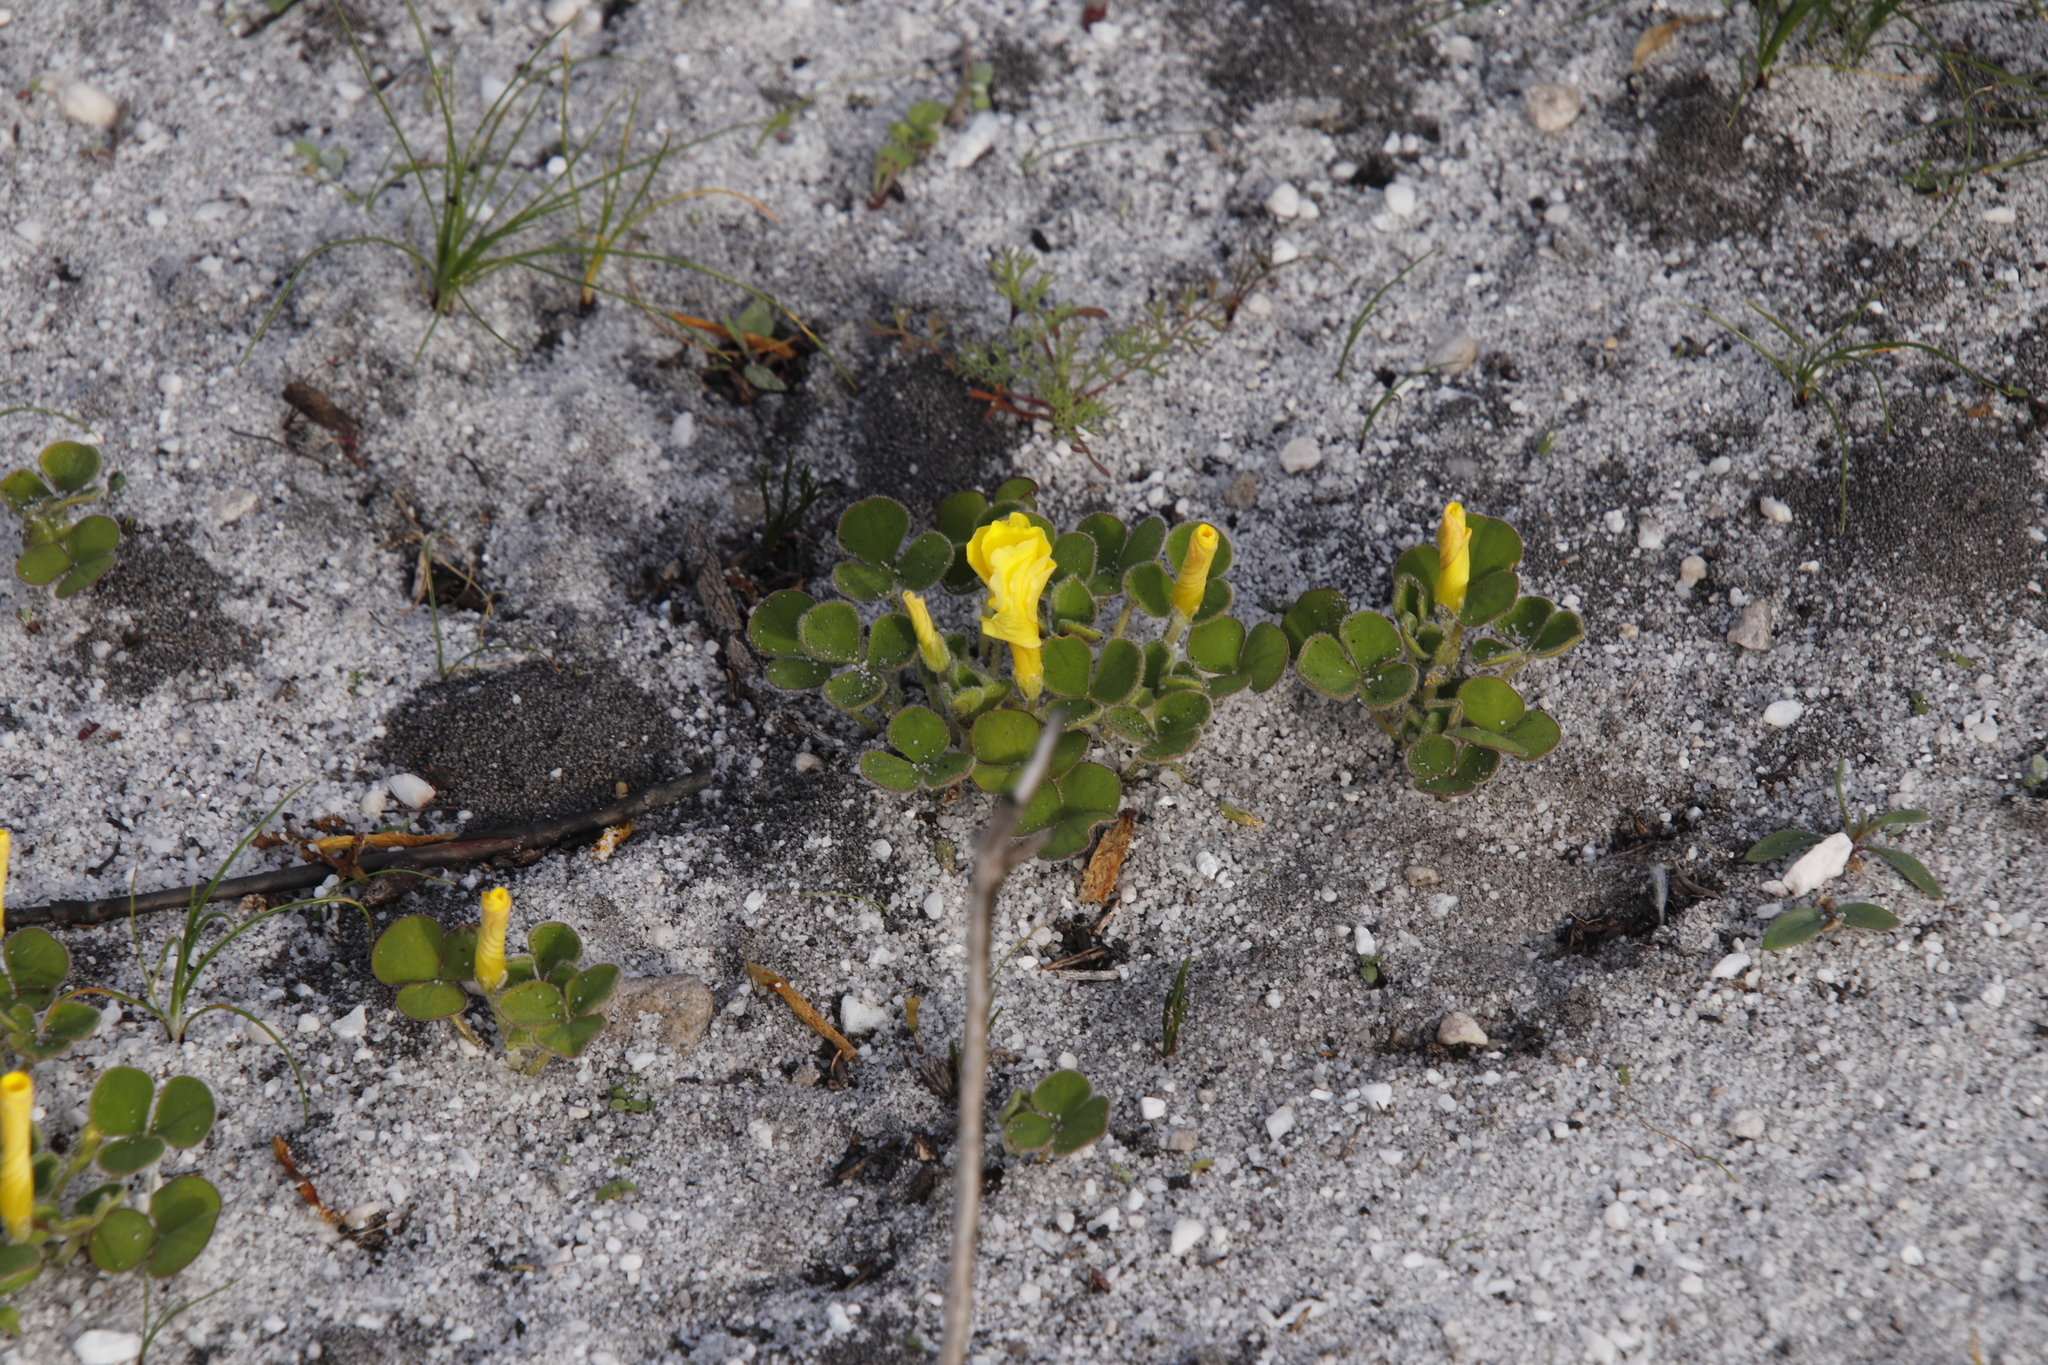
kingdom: Plantae
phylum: Tracheophyta
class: Magnoliopsida
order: Oxalidales
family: Oxalidaceae
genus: Oxalis
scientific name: Oxalis luteola
